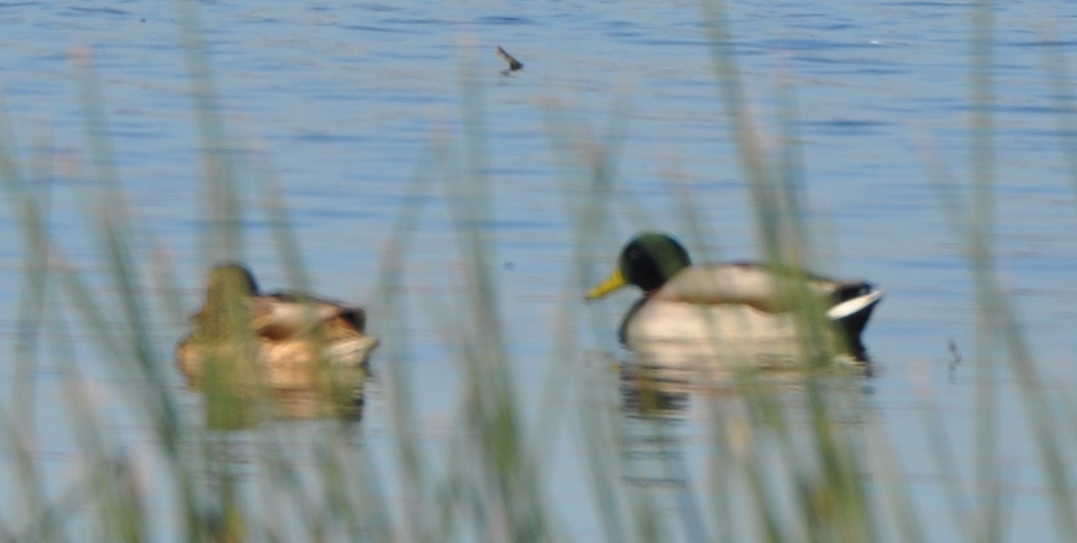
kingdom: Animalia
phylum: Chordata
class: Aves
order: Anseriformes
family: Anatidae
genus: Anas
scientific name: Anas platyrhynchos
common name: Mallard
